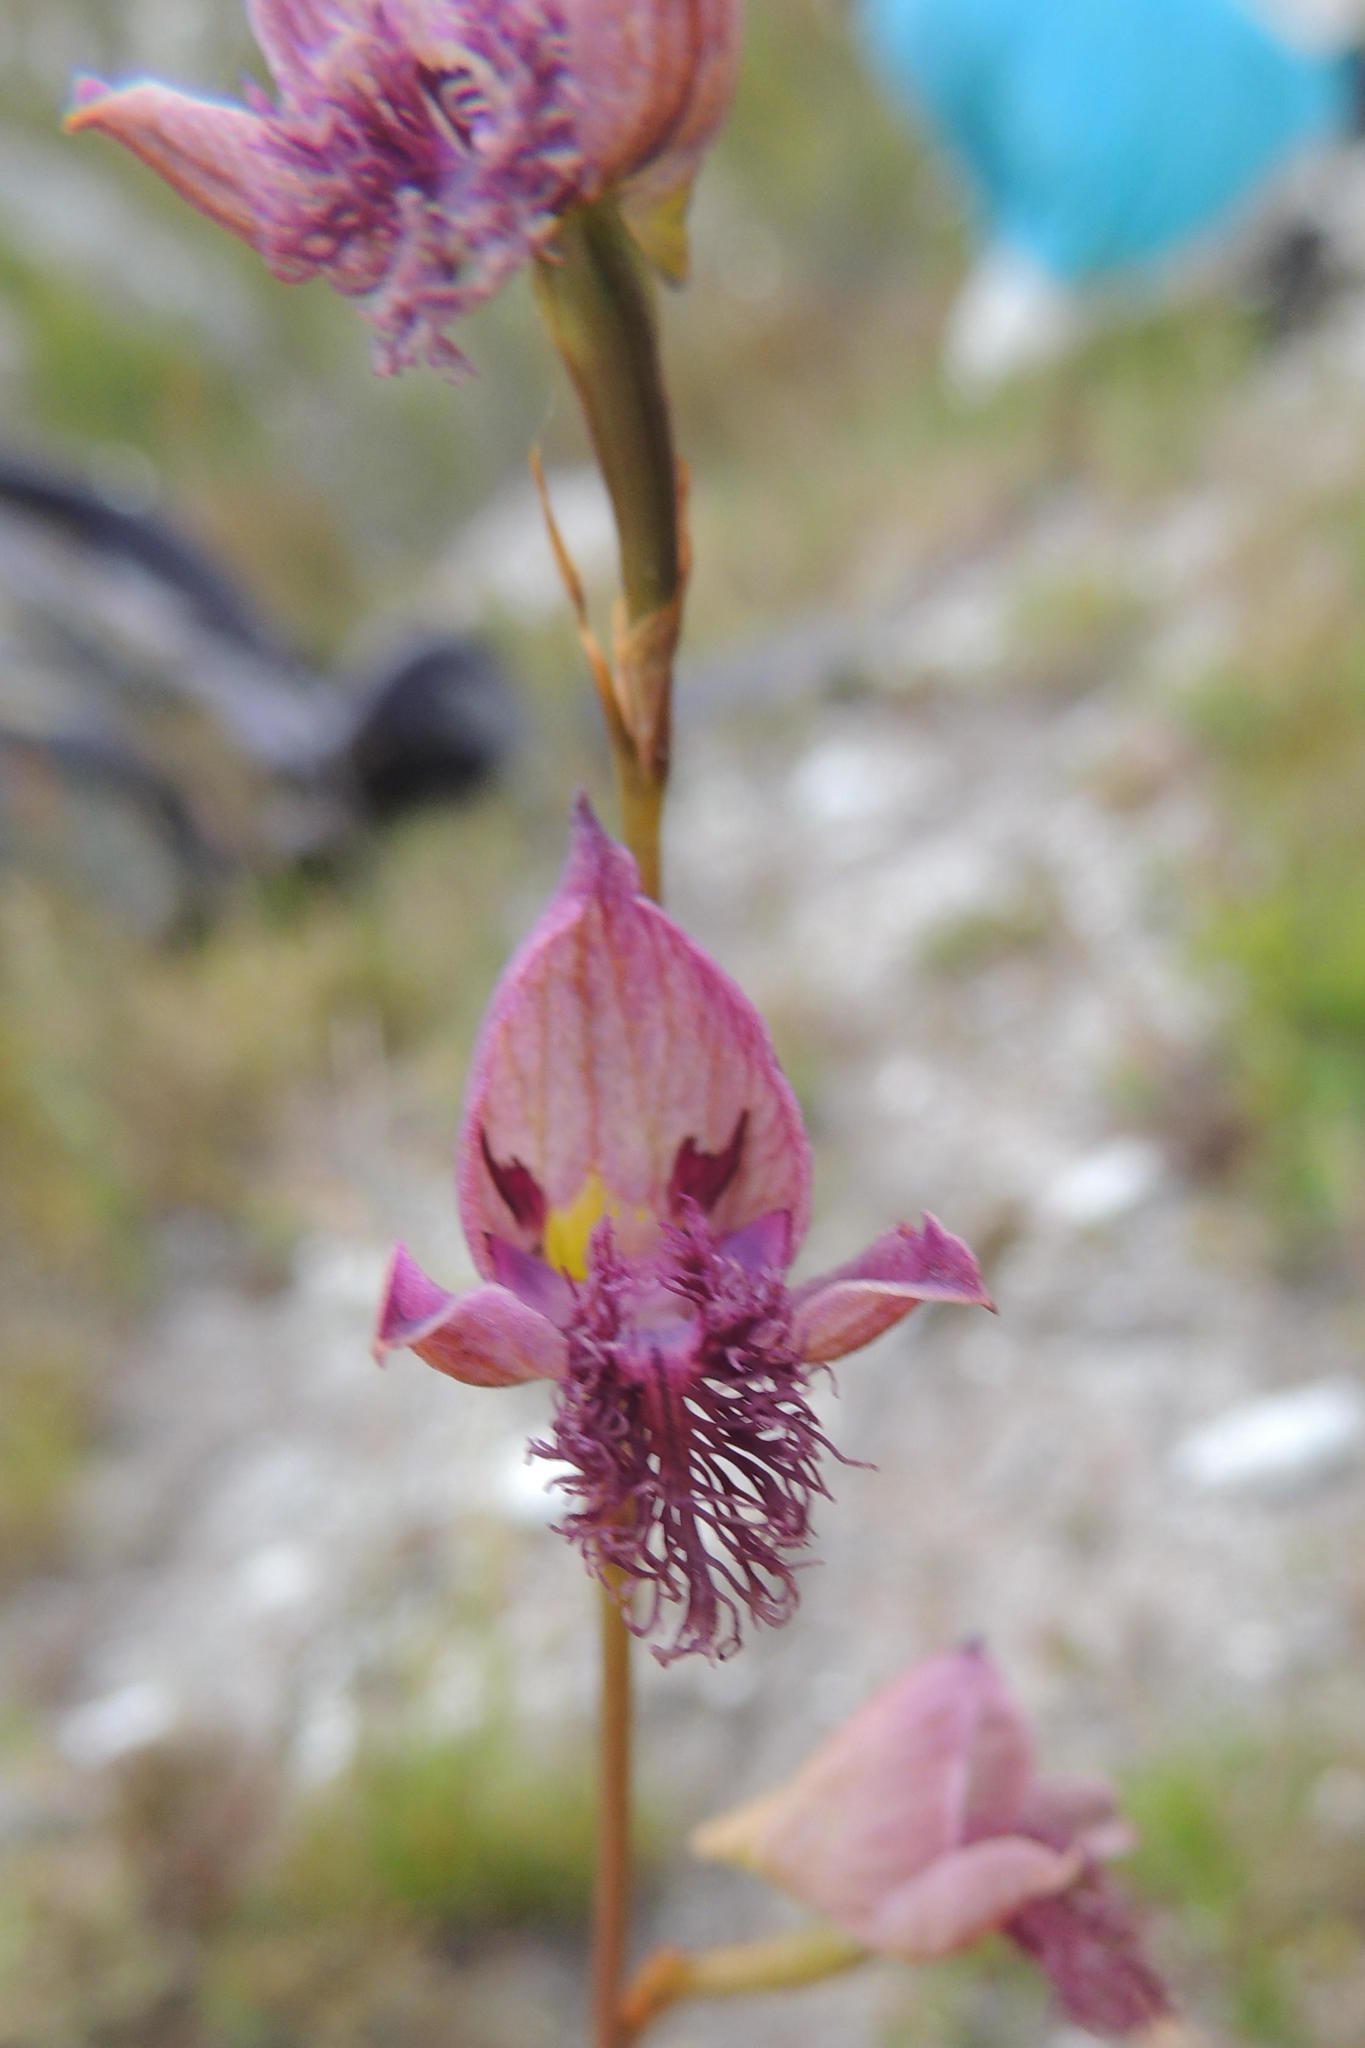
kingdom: Plantae
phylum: Tracheophyta
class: Liliopsida
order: Asparagales
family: Orchidaceae
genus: Disa
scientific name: Disa lugens
